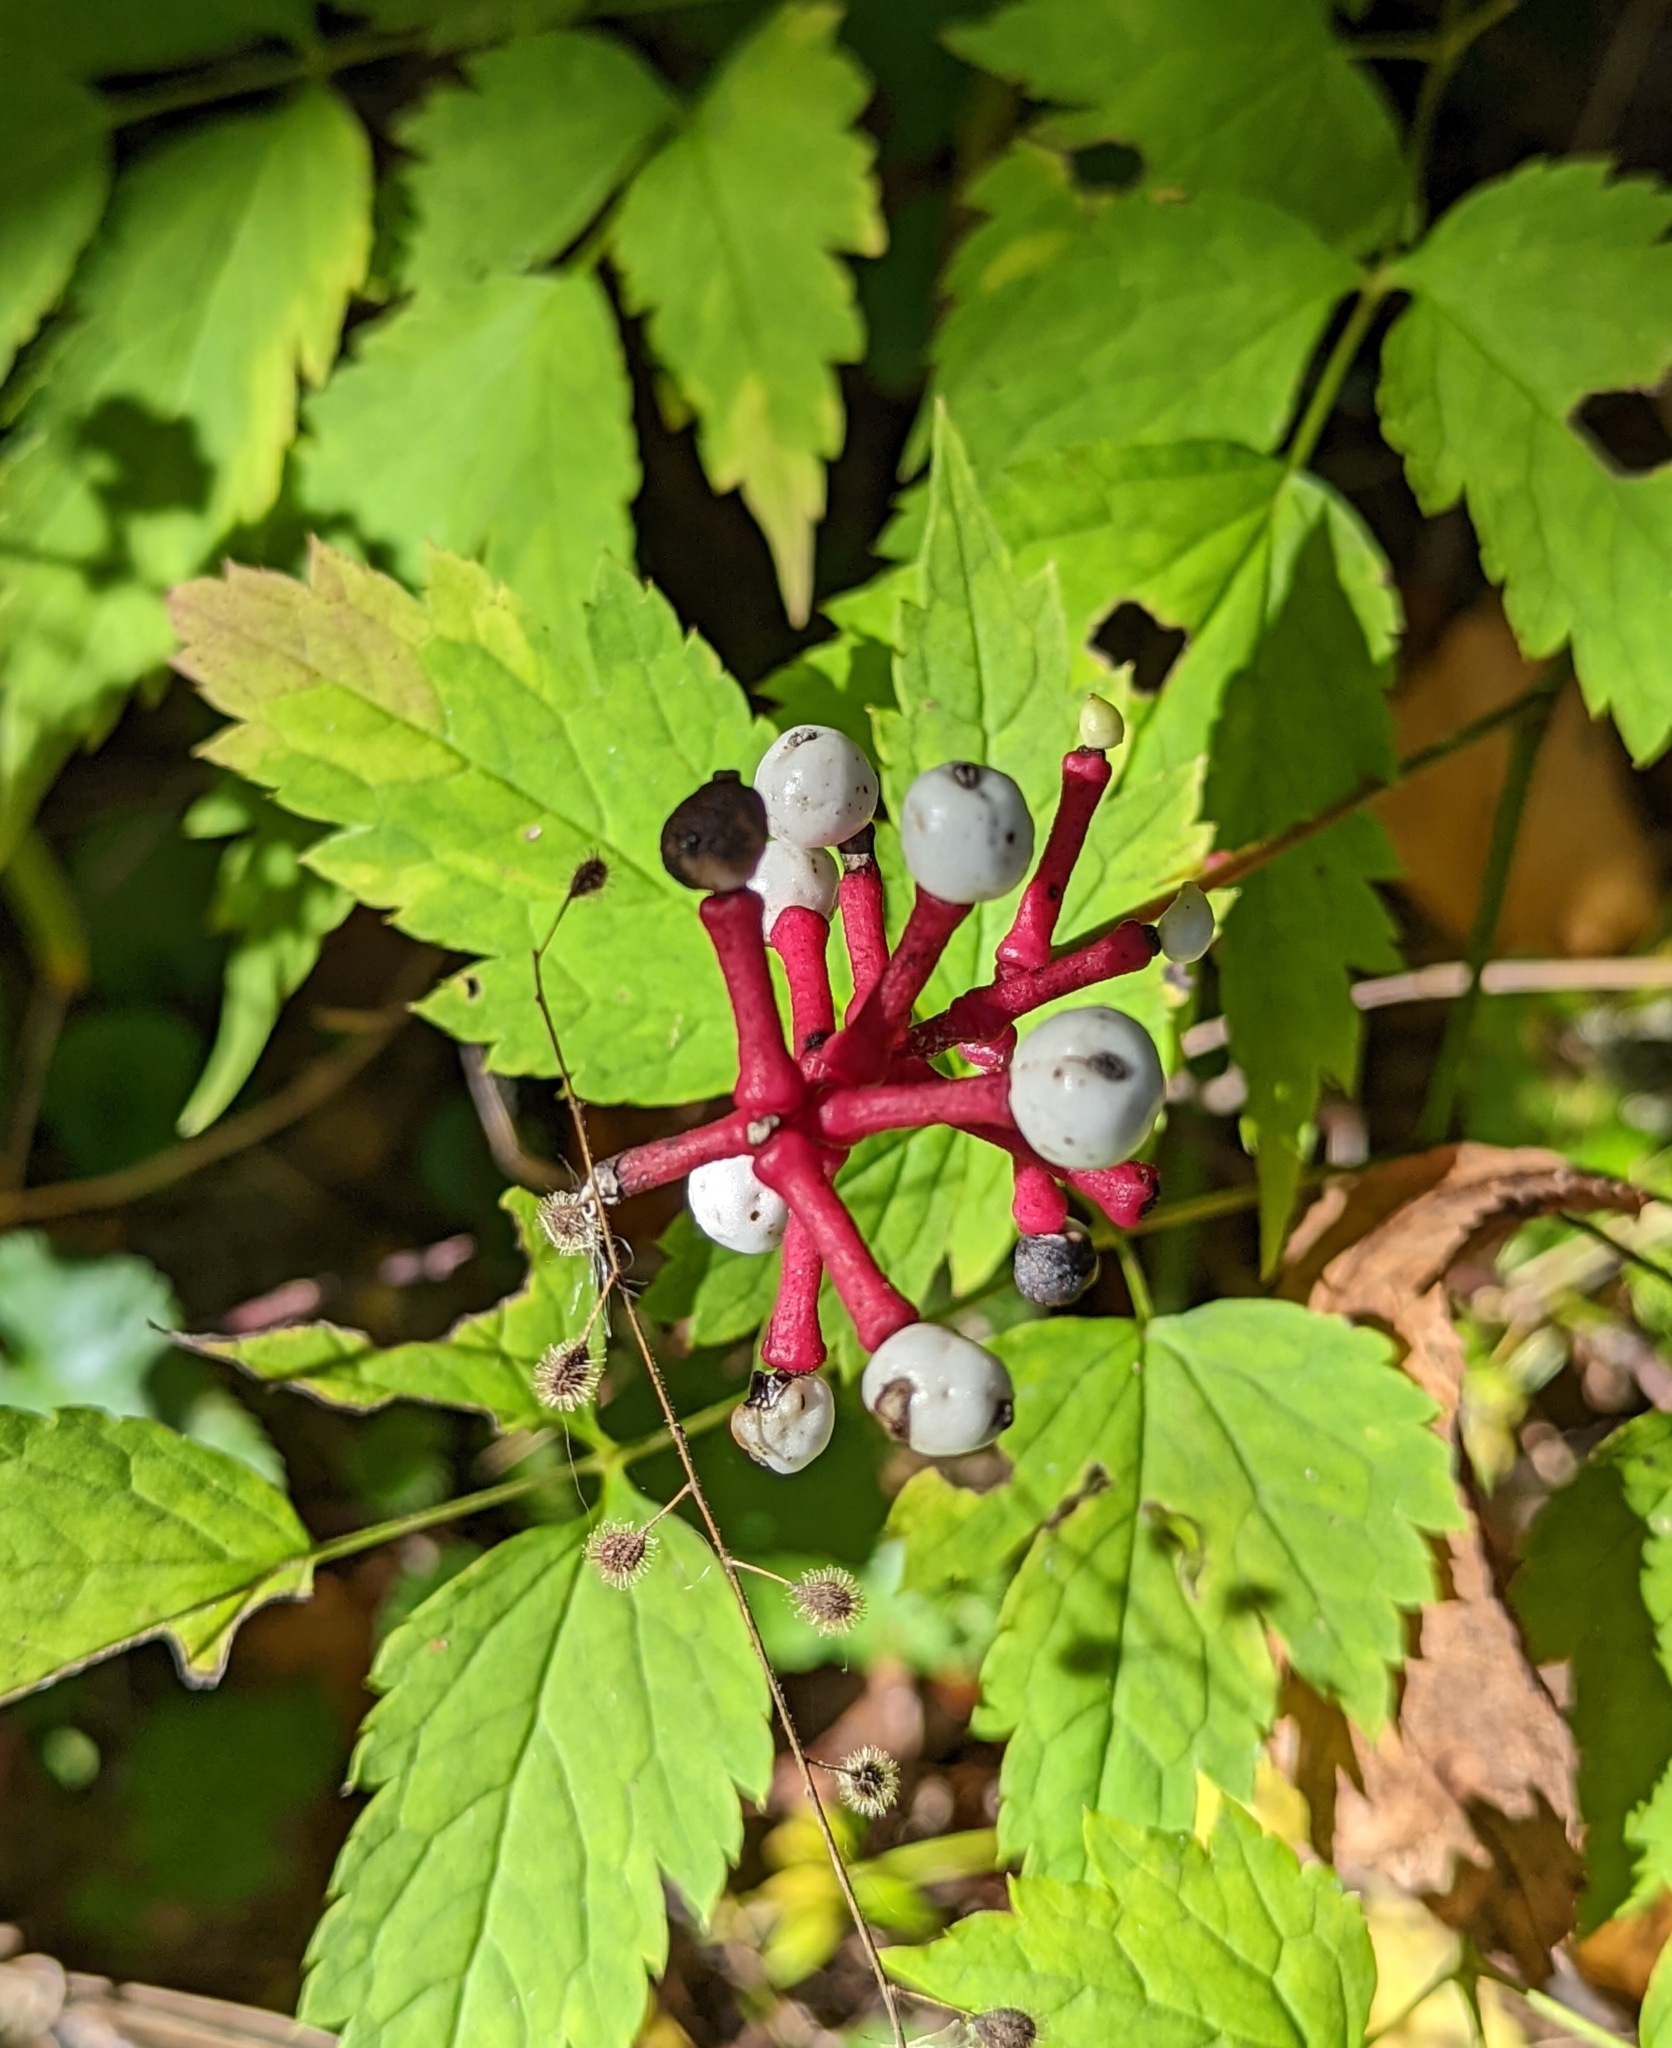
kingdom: Plantae
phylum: Tracheophyta
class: Magnoliopsida
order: Ranunculales
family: Ranunculaceae
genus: Actaea
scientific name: Actaea pachypoda
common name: Doll's-eyes
